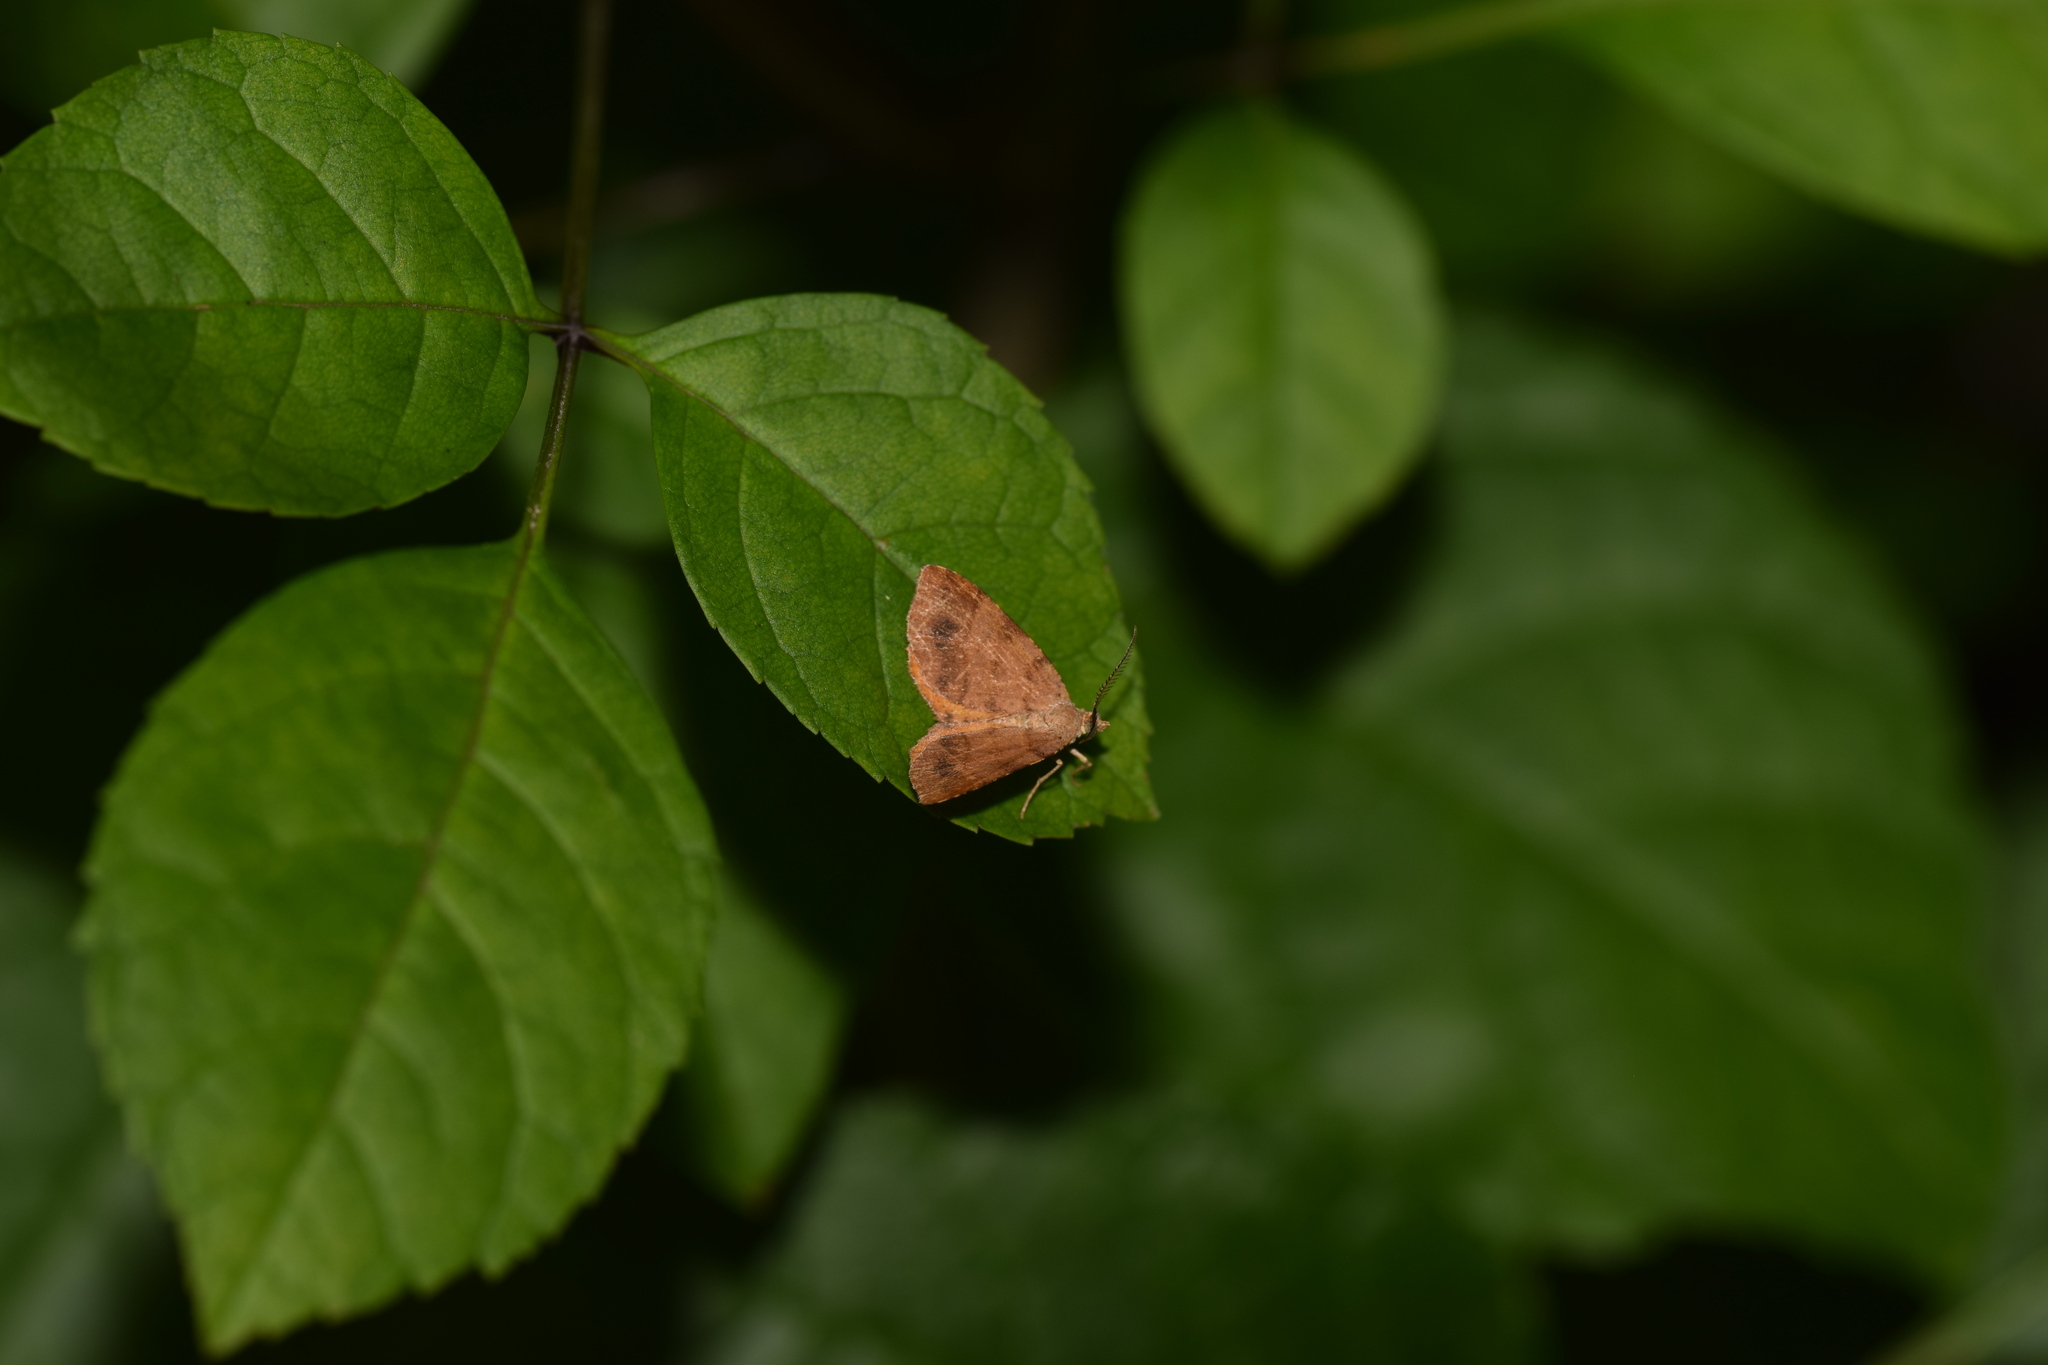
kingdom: Animalia
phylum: Arthropoda
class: Insecta
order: Lepidoptera
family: Geometridae
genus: Mellilla
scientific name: Mellilla xanthometata
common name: Orange wing moth
